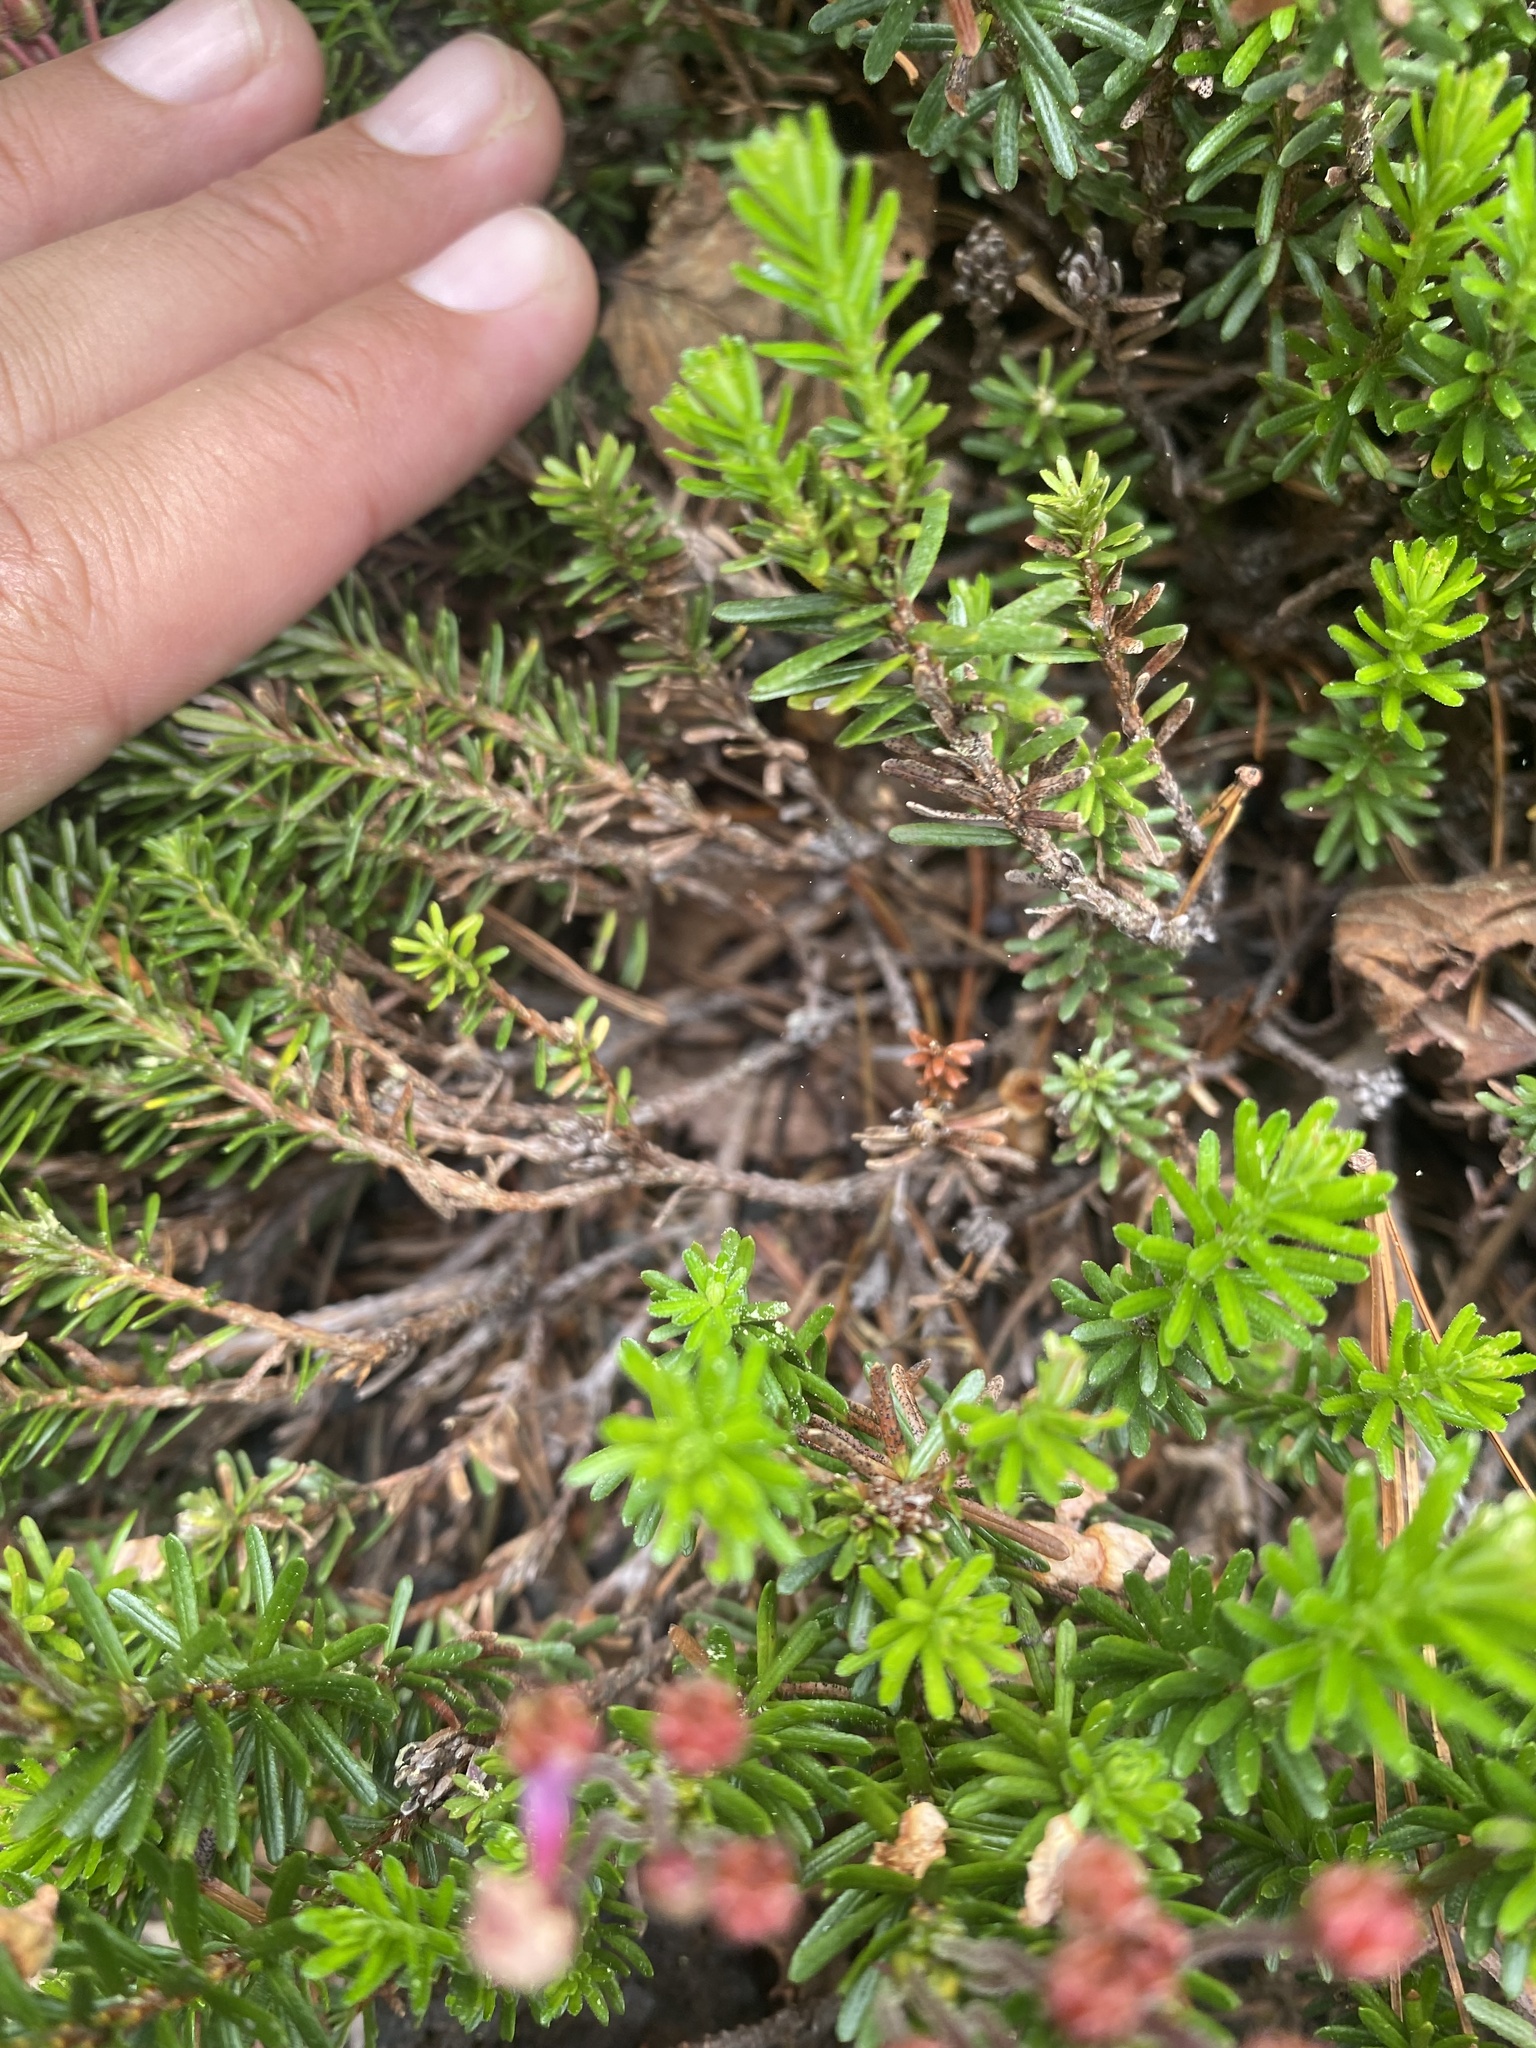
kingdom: Plantae
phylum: Tracheophyta
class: Magnoliopsida
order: Ericales
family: Ericaceae
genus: Phyllodoce
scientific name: Phyllodoce caerulea
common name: Blue heath
